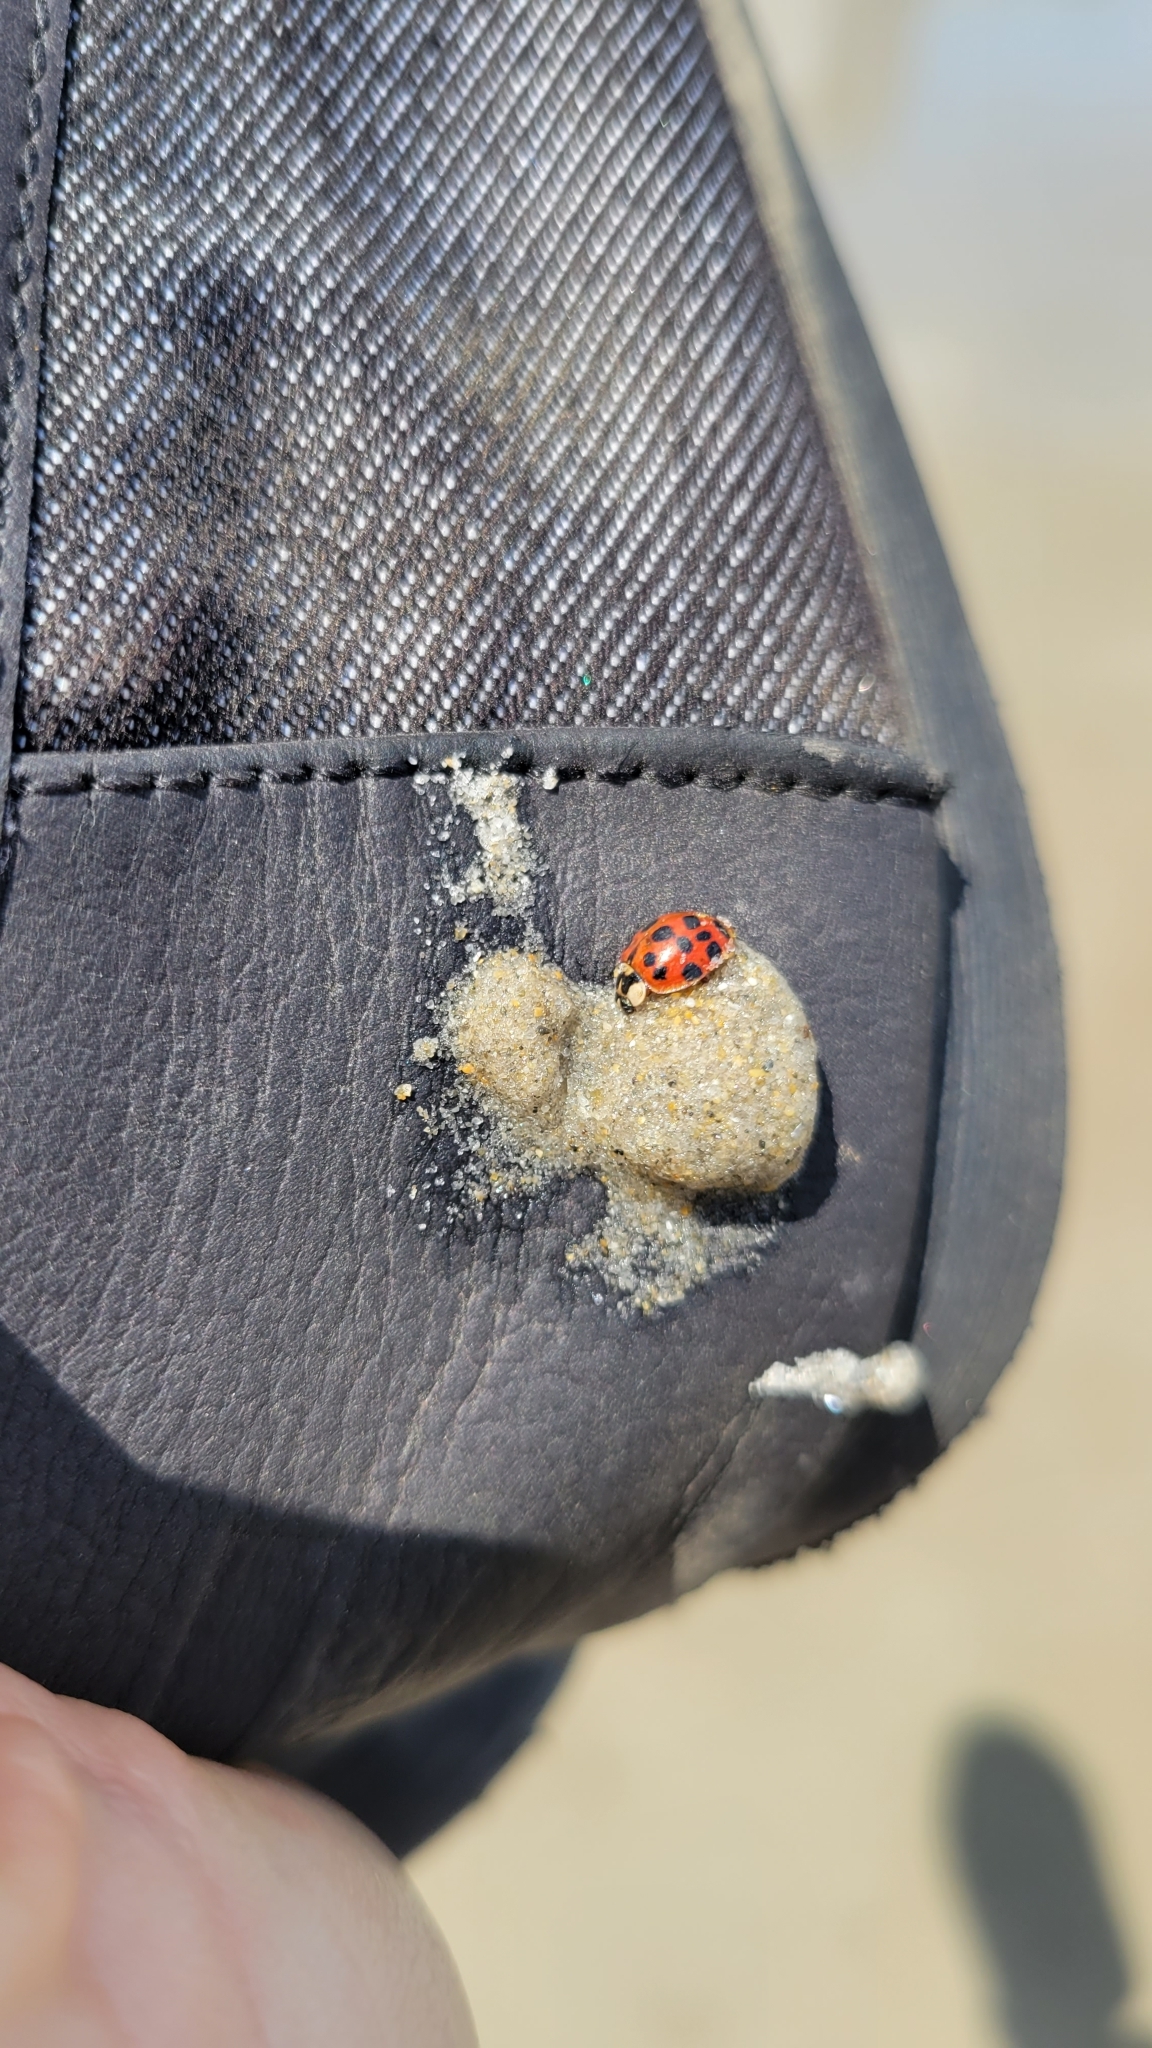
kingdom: Animalia
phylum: Arthropoda
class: Insecta
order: Coleoptera
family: Coccinellidae
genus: Harmonia
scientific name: Harmonia axyridis
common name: Harlequin ladybird
